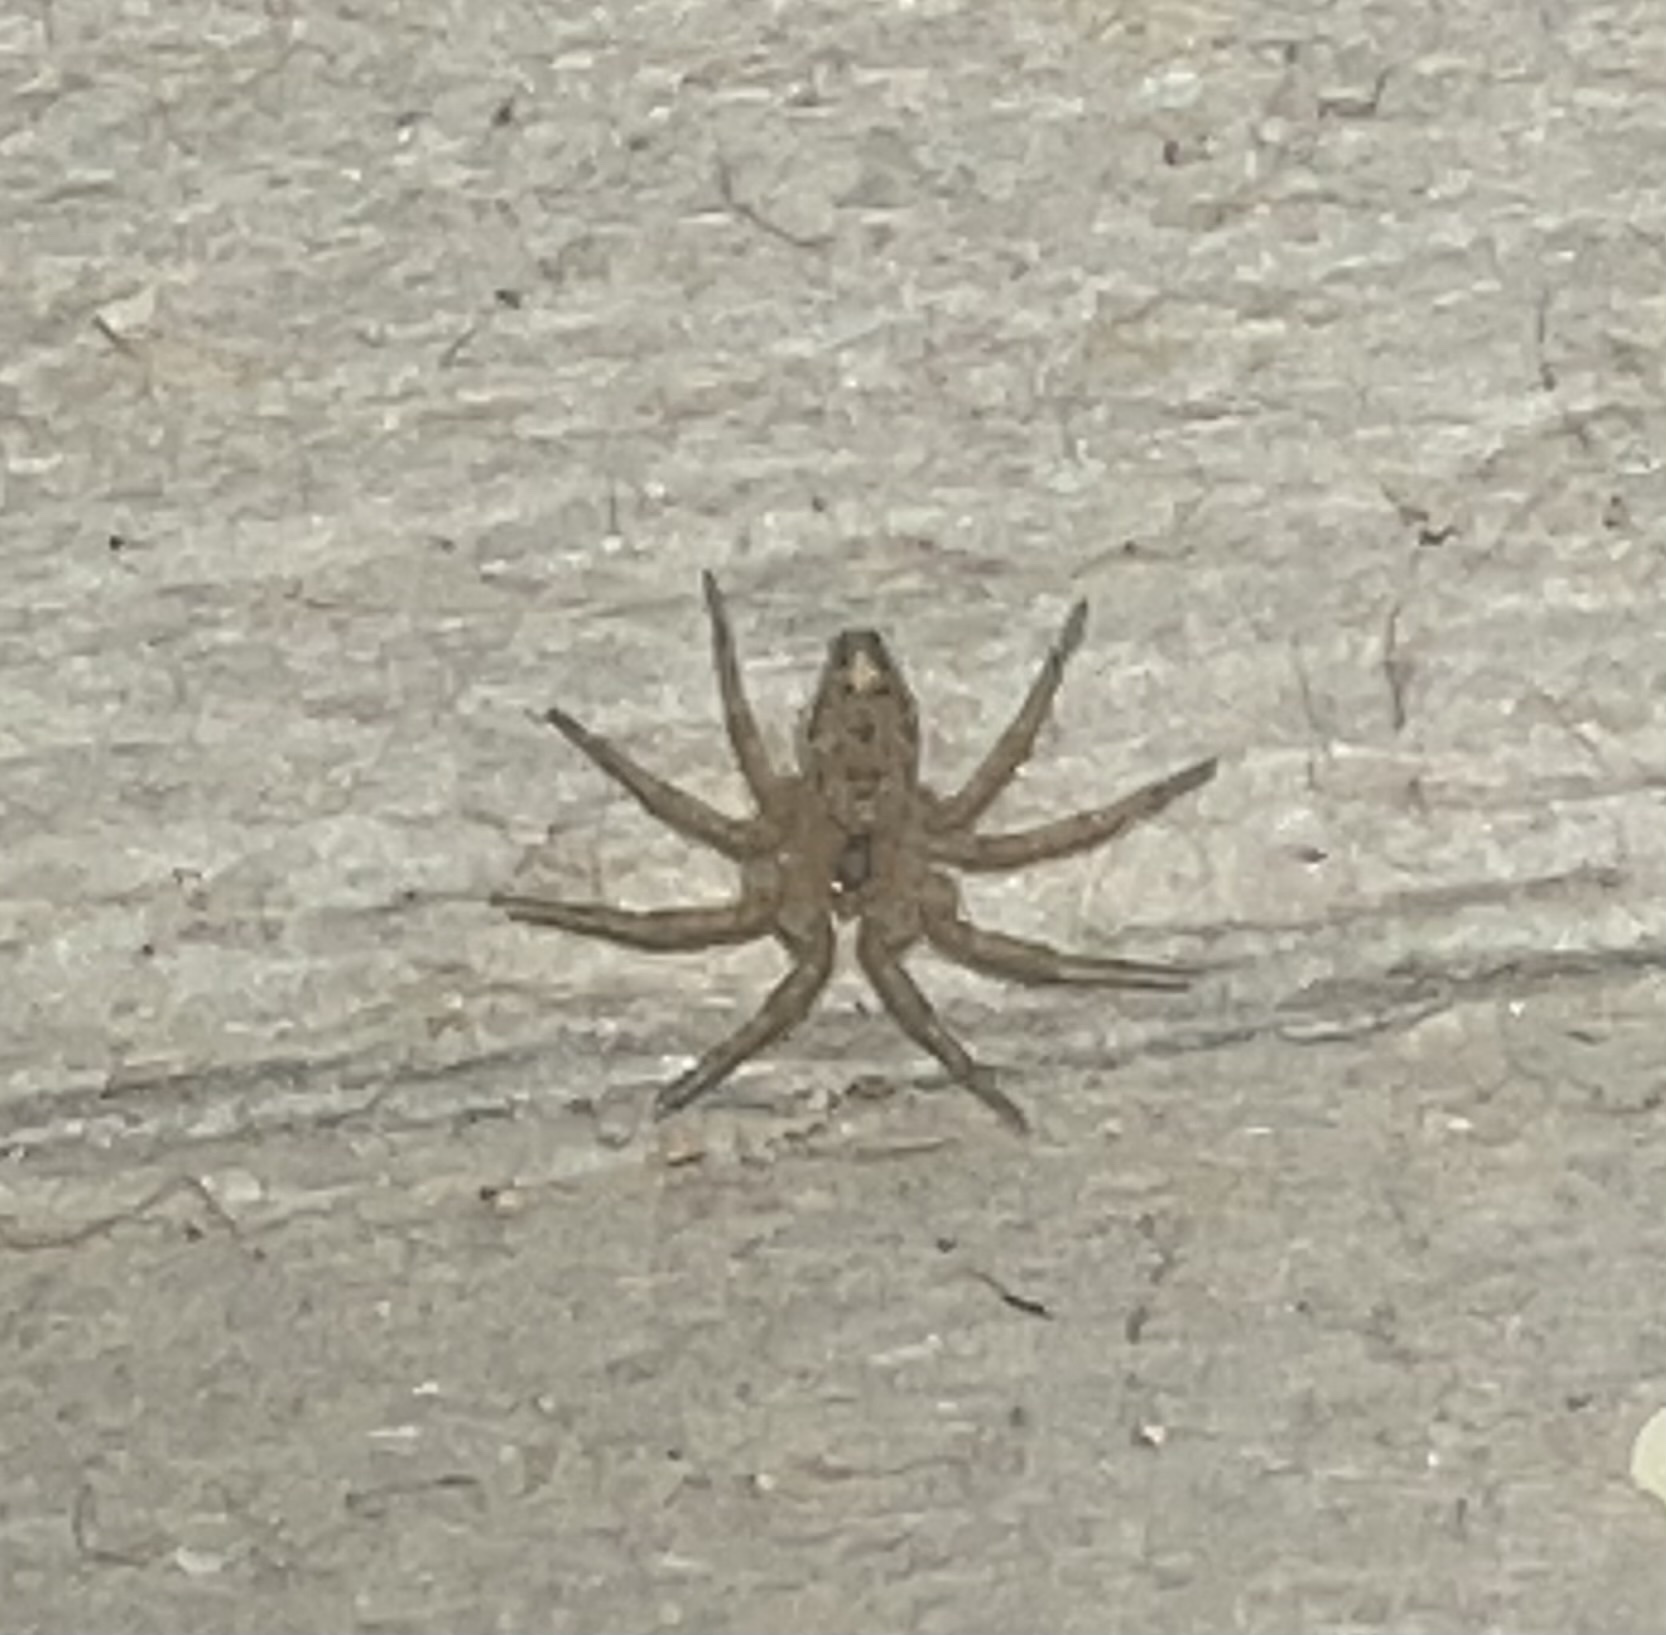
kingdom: Animalia
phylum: Arthropoda
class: Arachnida
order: Araneae
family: Oecobiidae
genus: Oecobius
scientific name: Oecobius navus
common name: Flatmesh weaver
